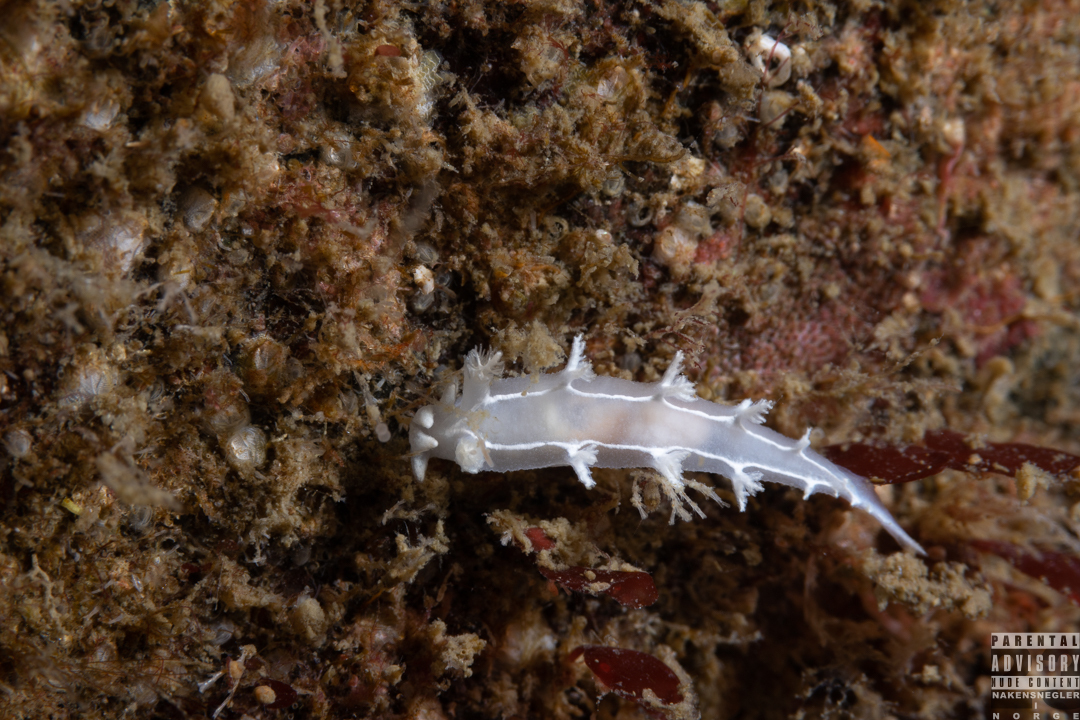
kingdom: Animalia
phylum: Mollusca
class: Gastropoda
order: Nudibranchia
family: Tritoniidae
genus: Duvaucelia
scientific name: Duvaucelia lineata
